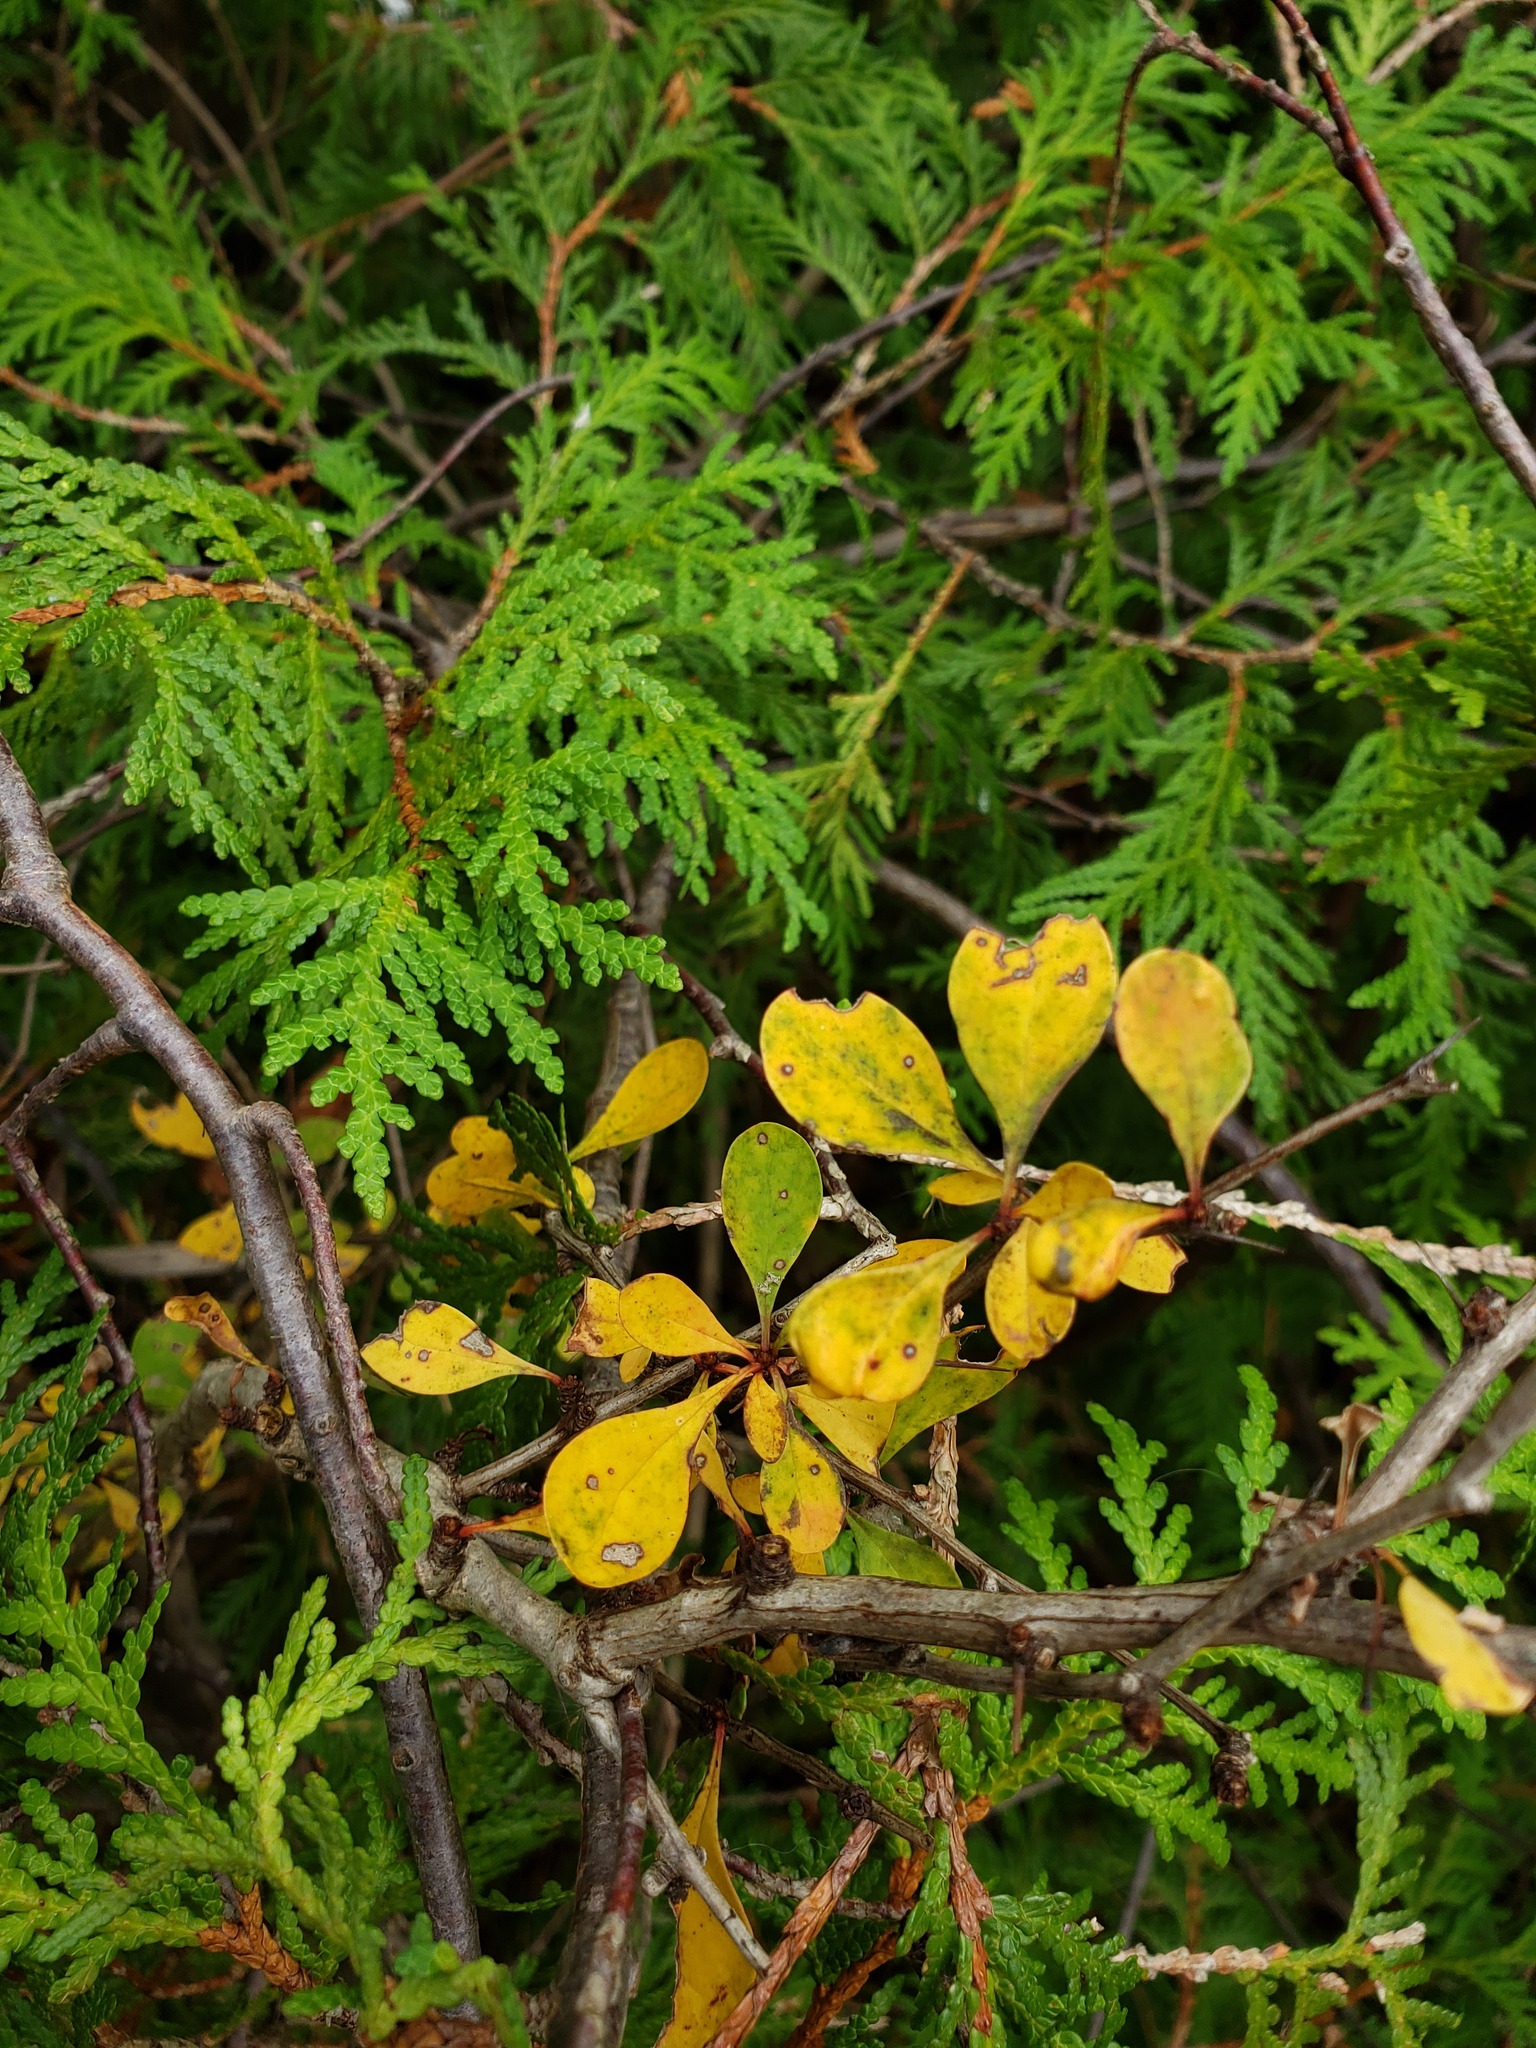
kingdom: Plantae
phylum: Tracheophyta
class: Pinopsida
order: Pinales
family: Cupressaceae
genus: Thuja
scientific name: Thuja occidentalis
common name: Northern white-cedar
